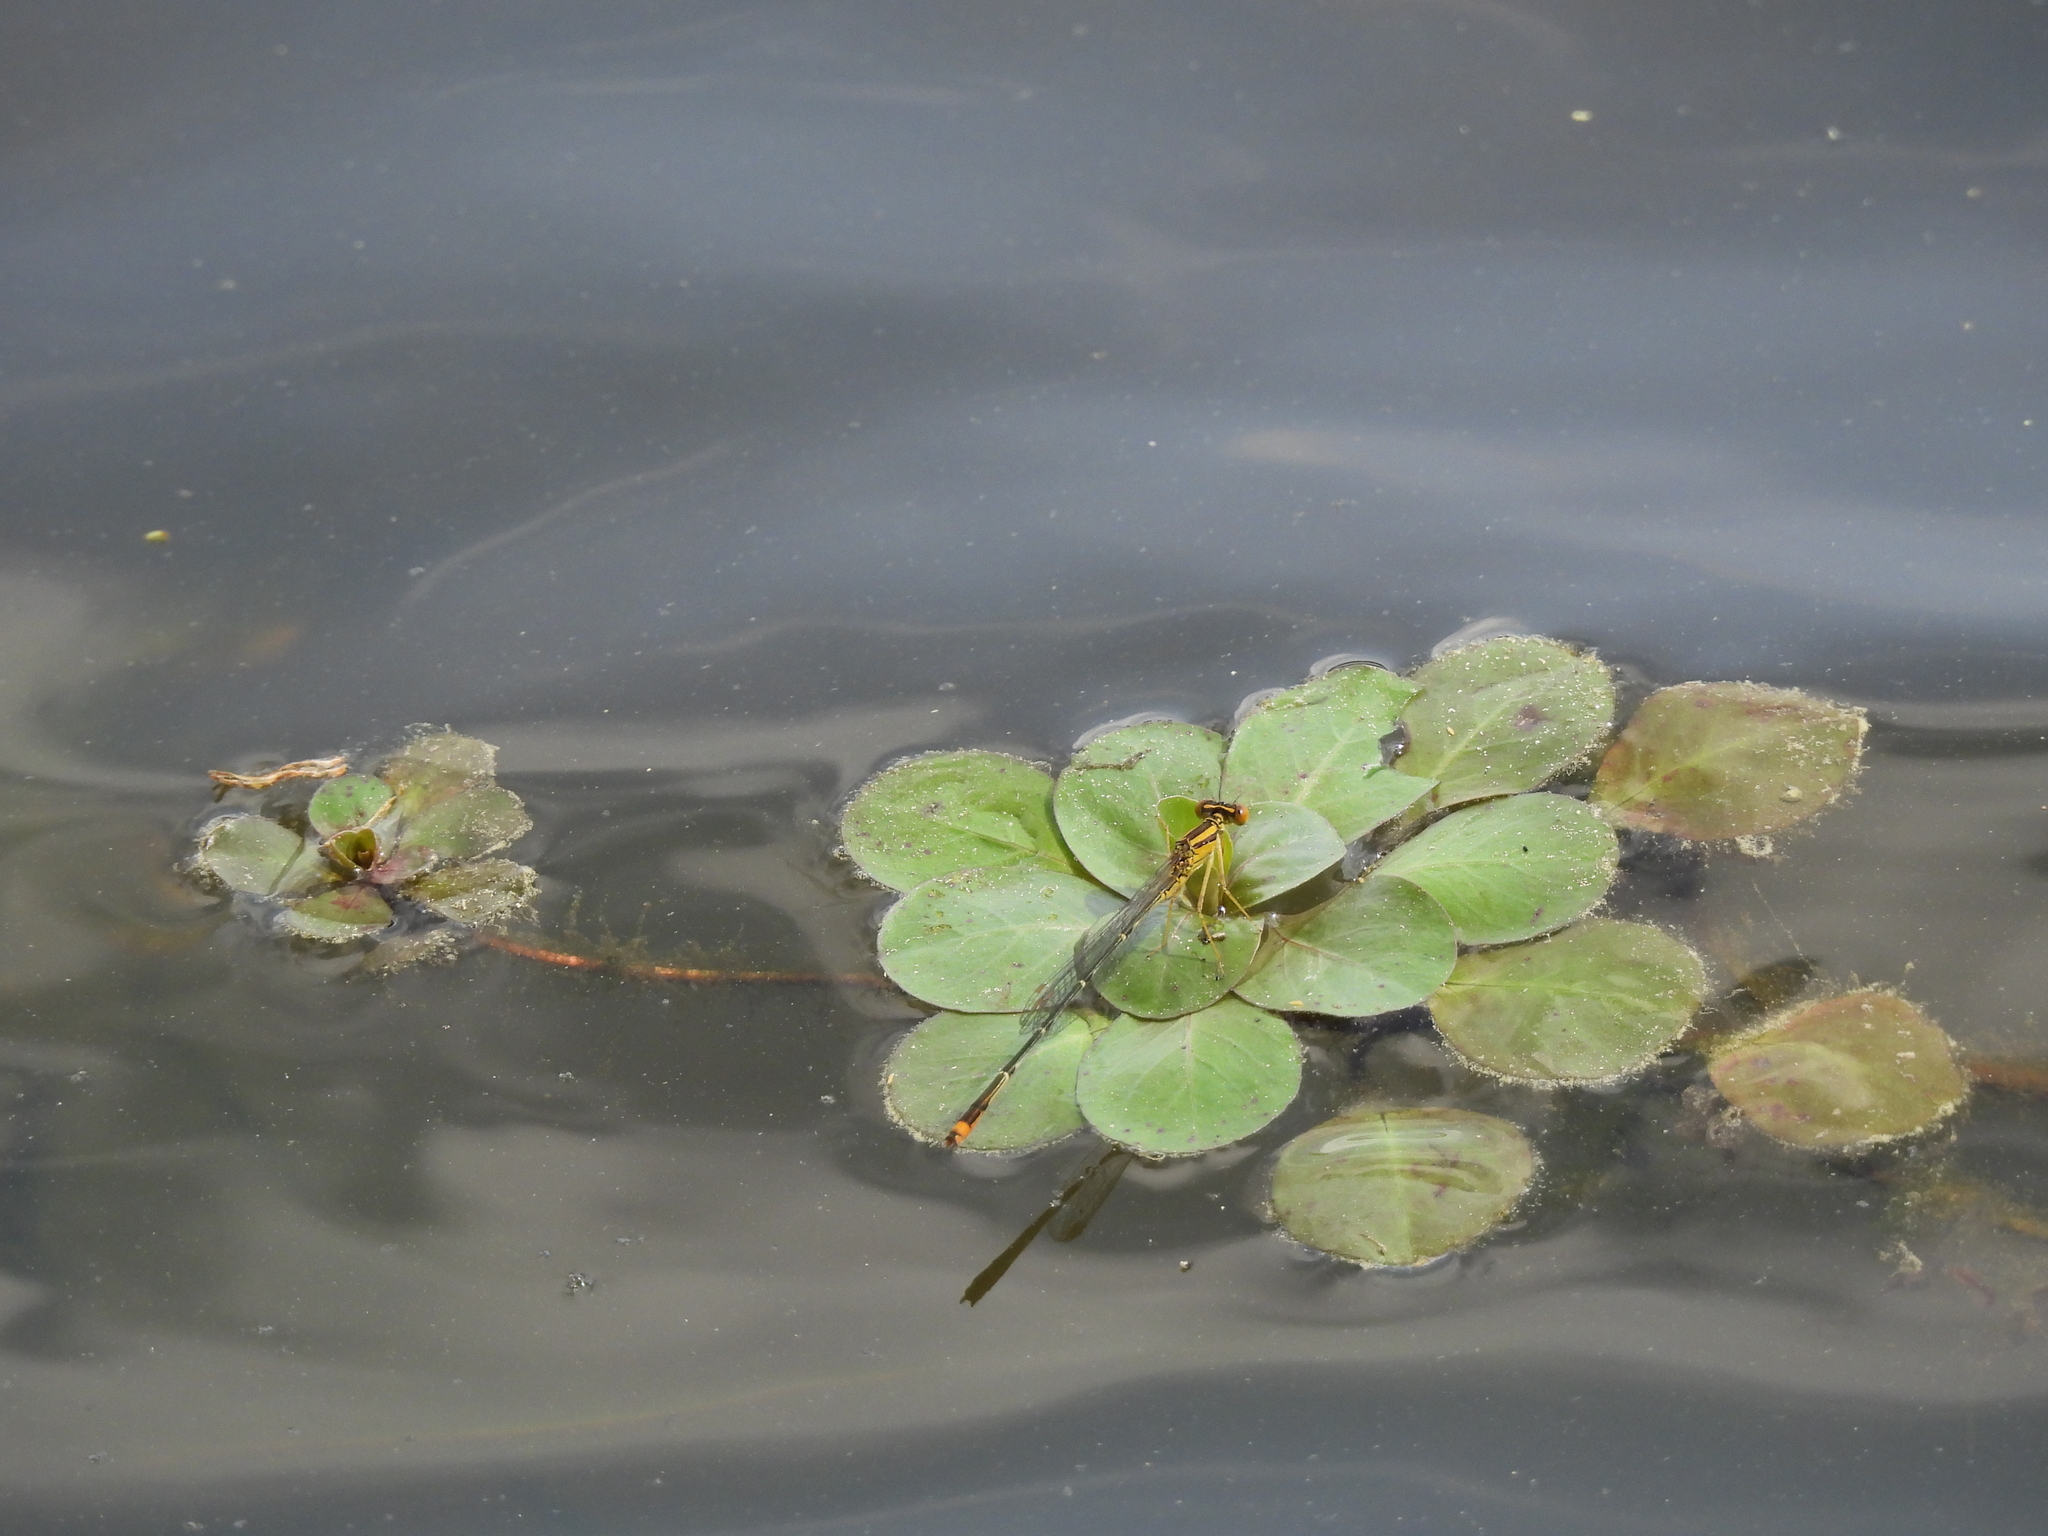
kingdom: Animalia
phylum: Arthropoda
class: Insecta
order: Odonata
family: Coenagrionidae
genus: Enallagma
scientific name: Enallagma signatum
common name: Orange bluet
